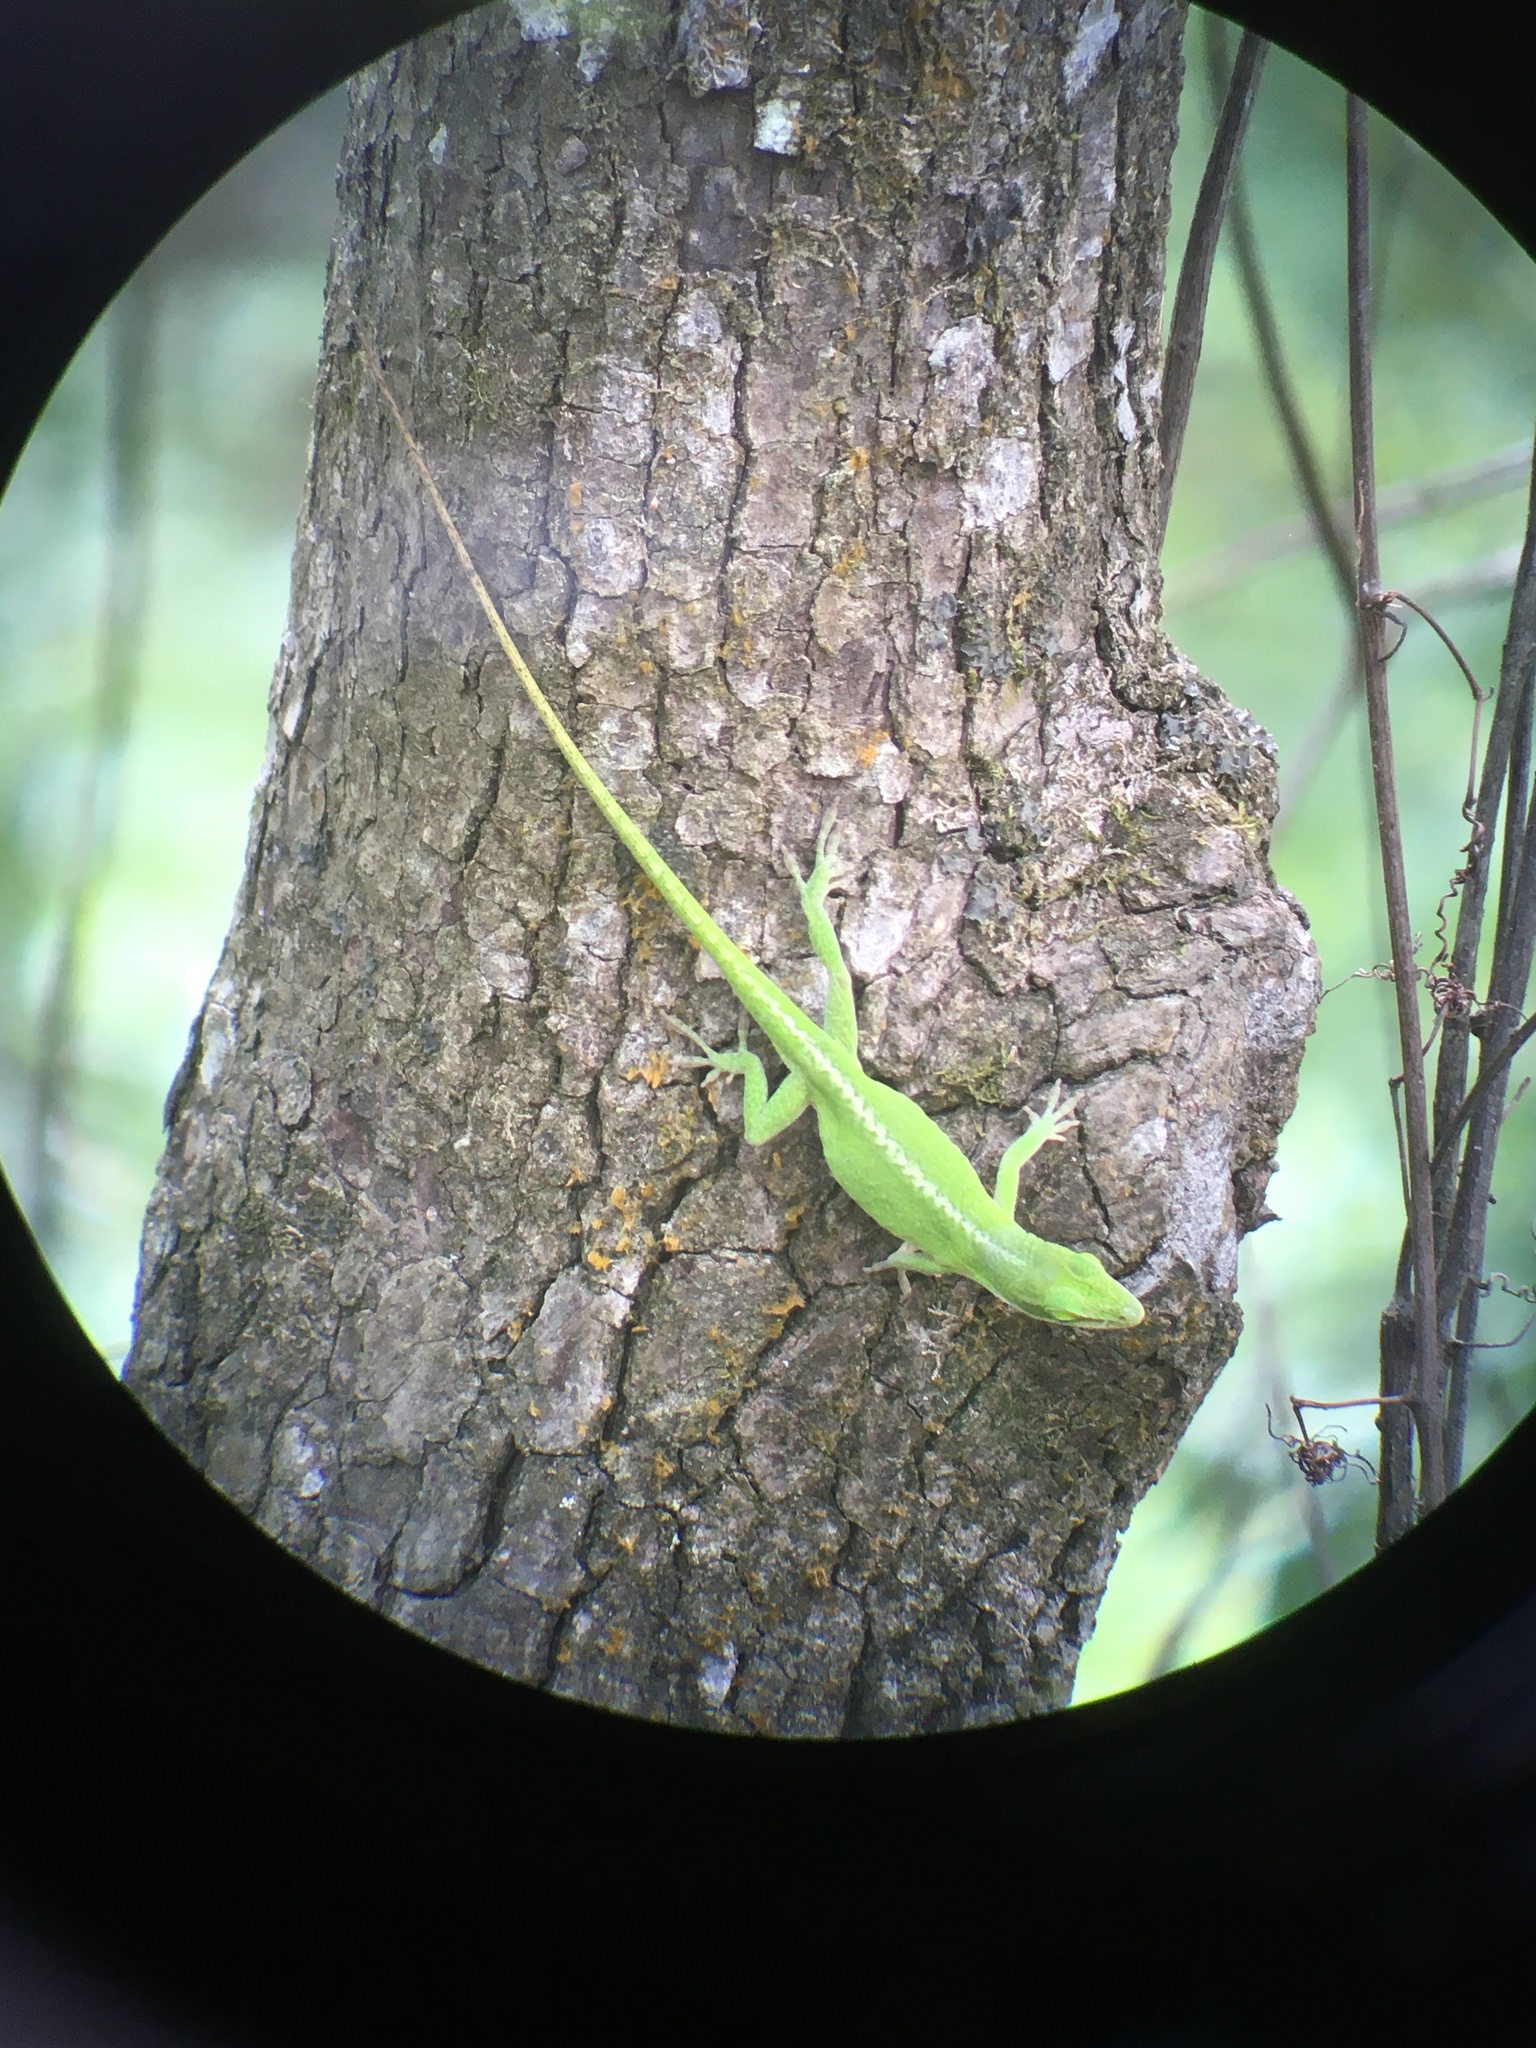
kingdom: Animalia
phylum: Chordata
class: Squamata
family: Dactyloidae
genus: Anolis
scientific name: Anolis carolinensis
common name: Green anole
